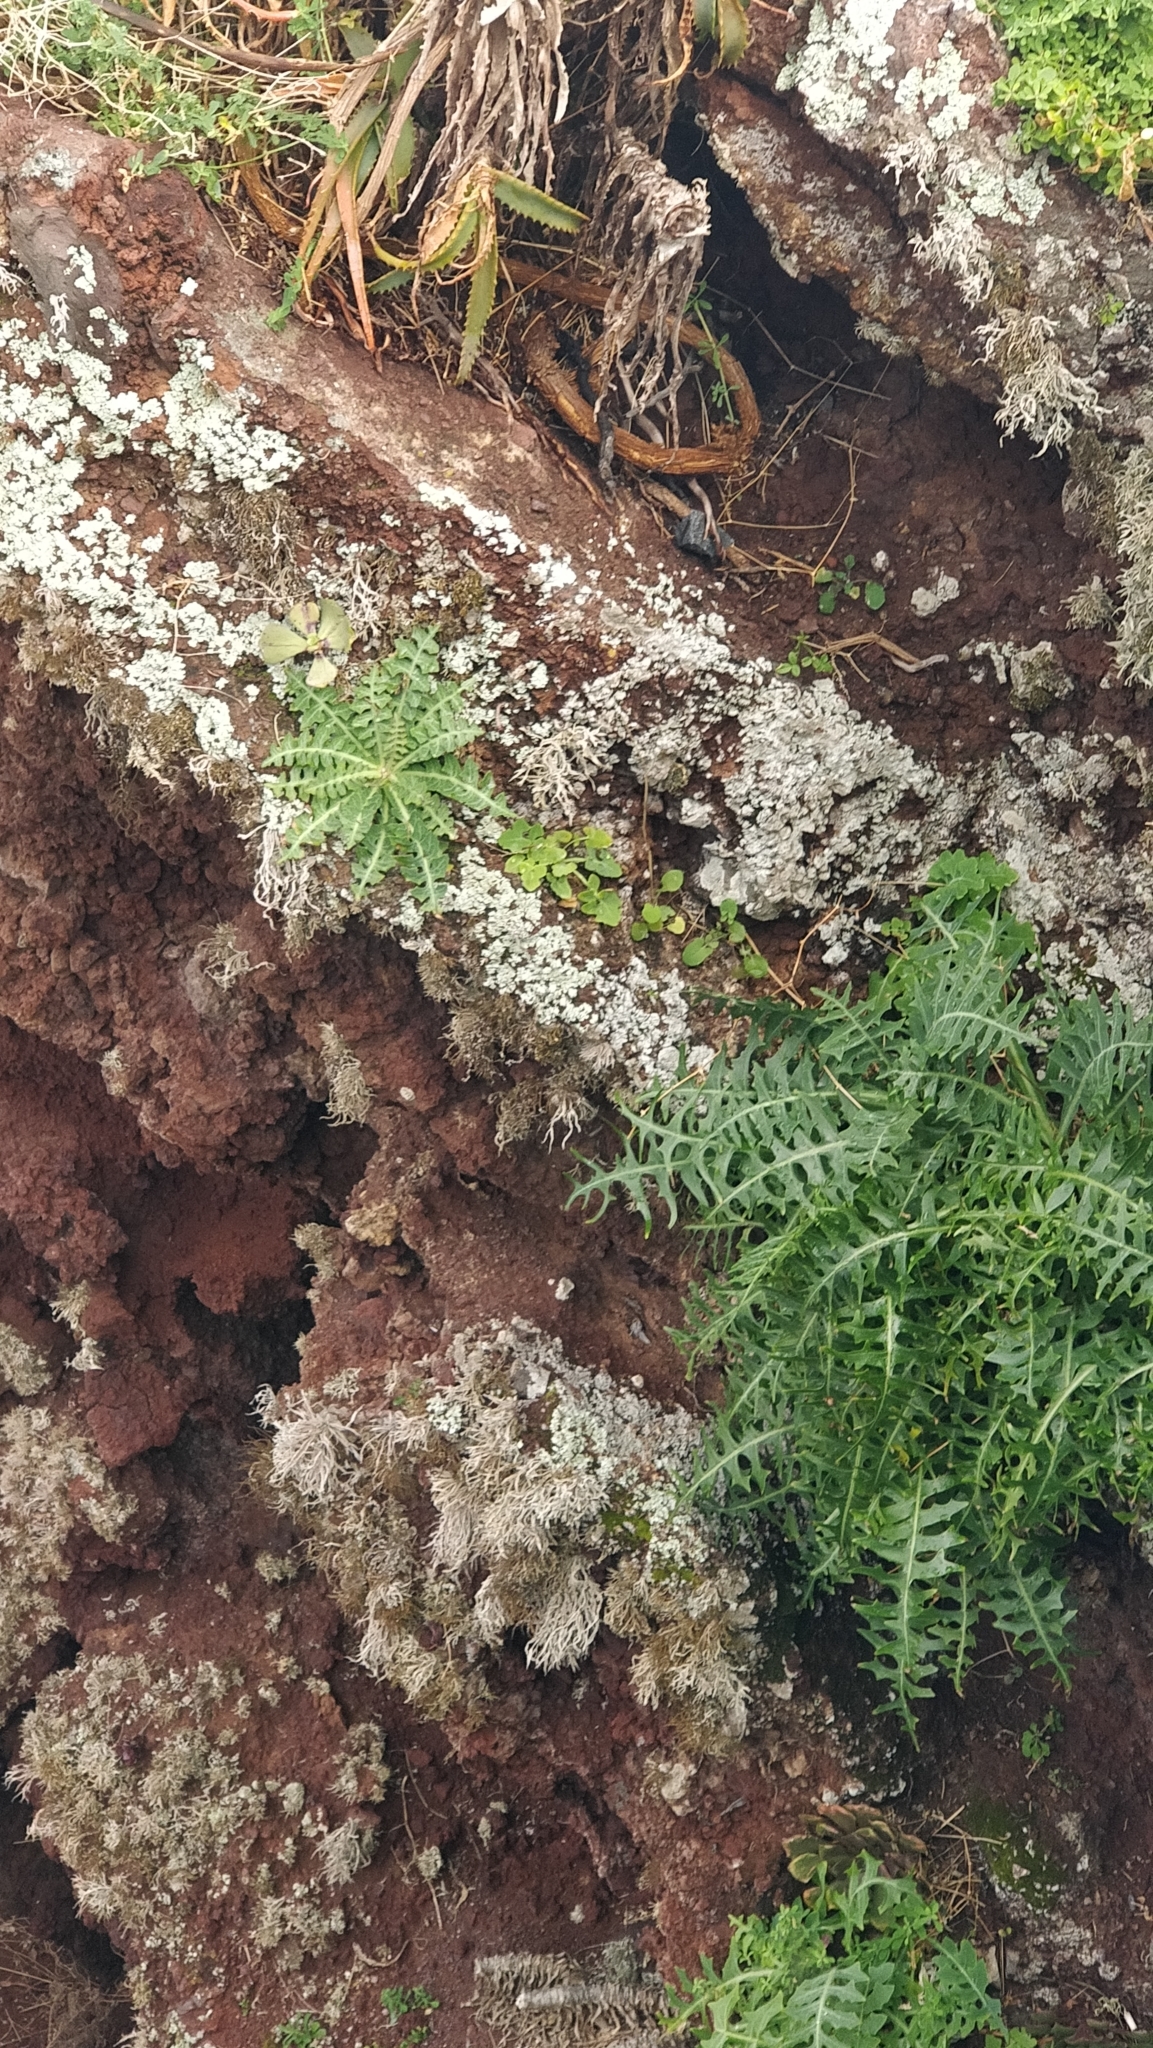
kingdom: Plantae
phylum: Tracheophyta
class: Magnoliopsida
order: Asterales
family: Asteraceae
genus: Sonchus
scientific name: Sonchus ustulatus
